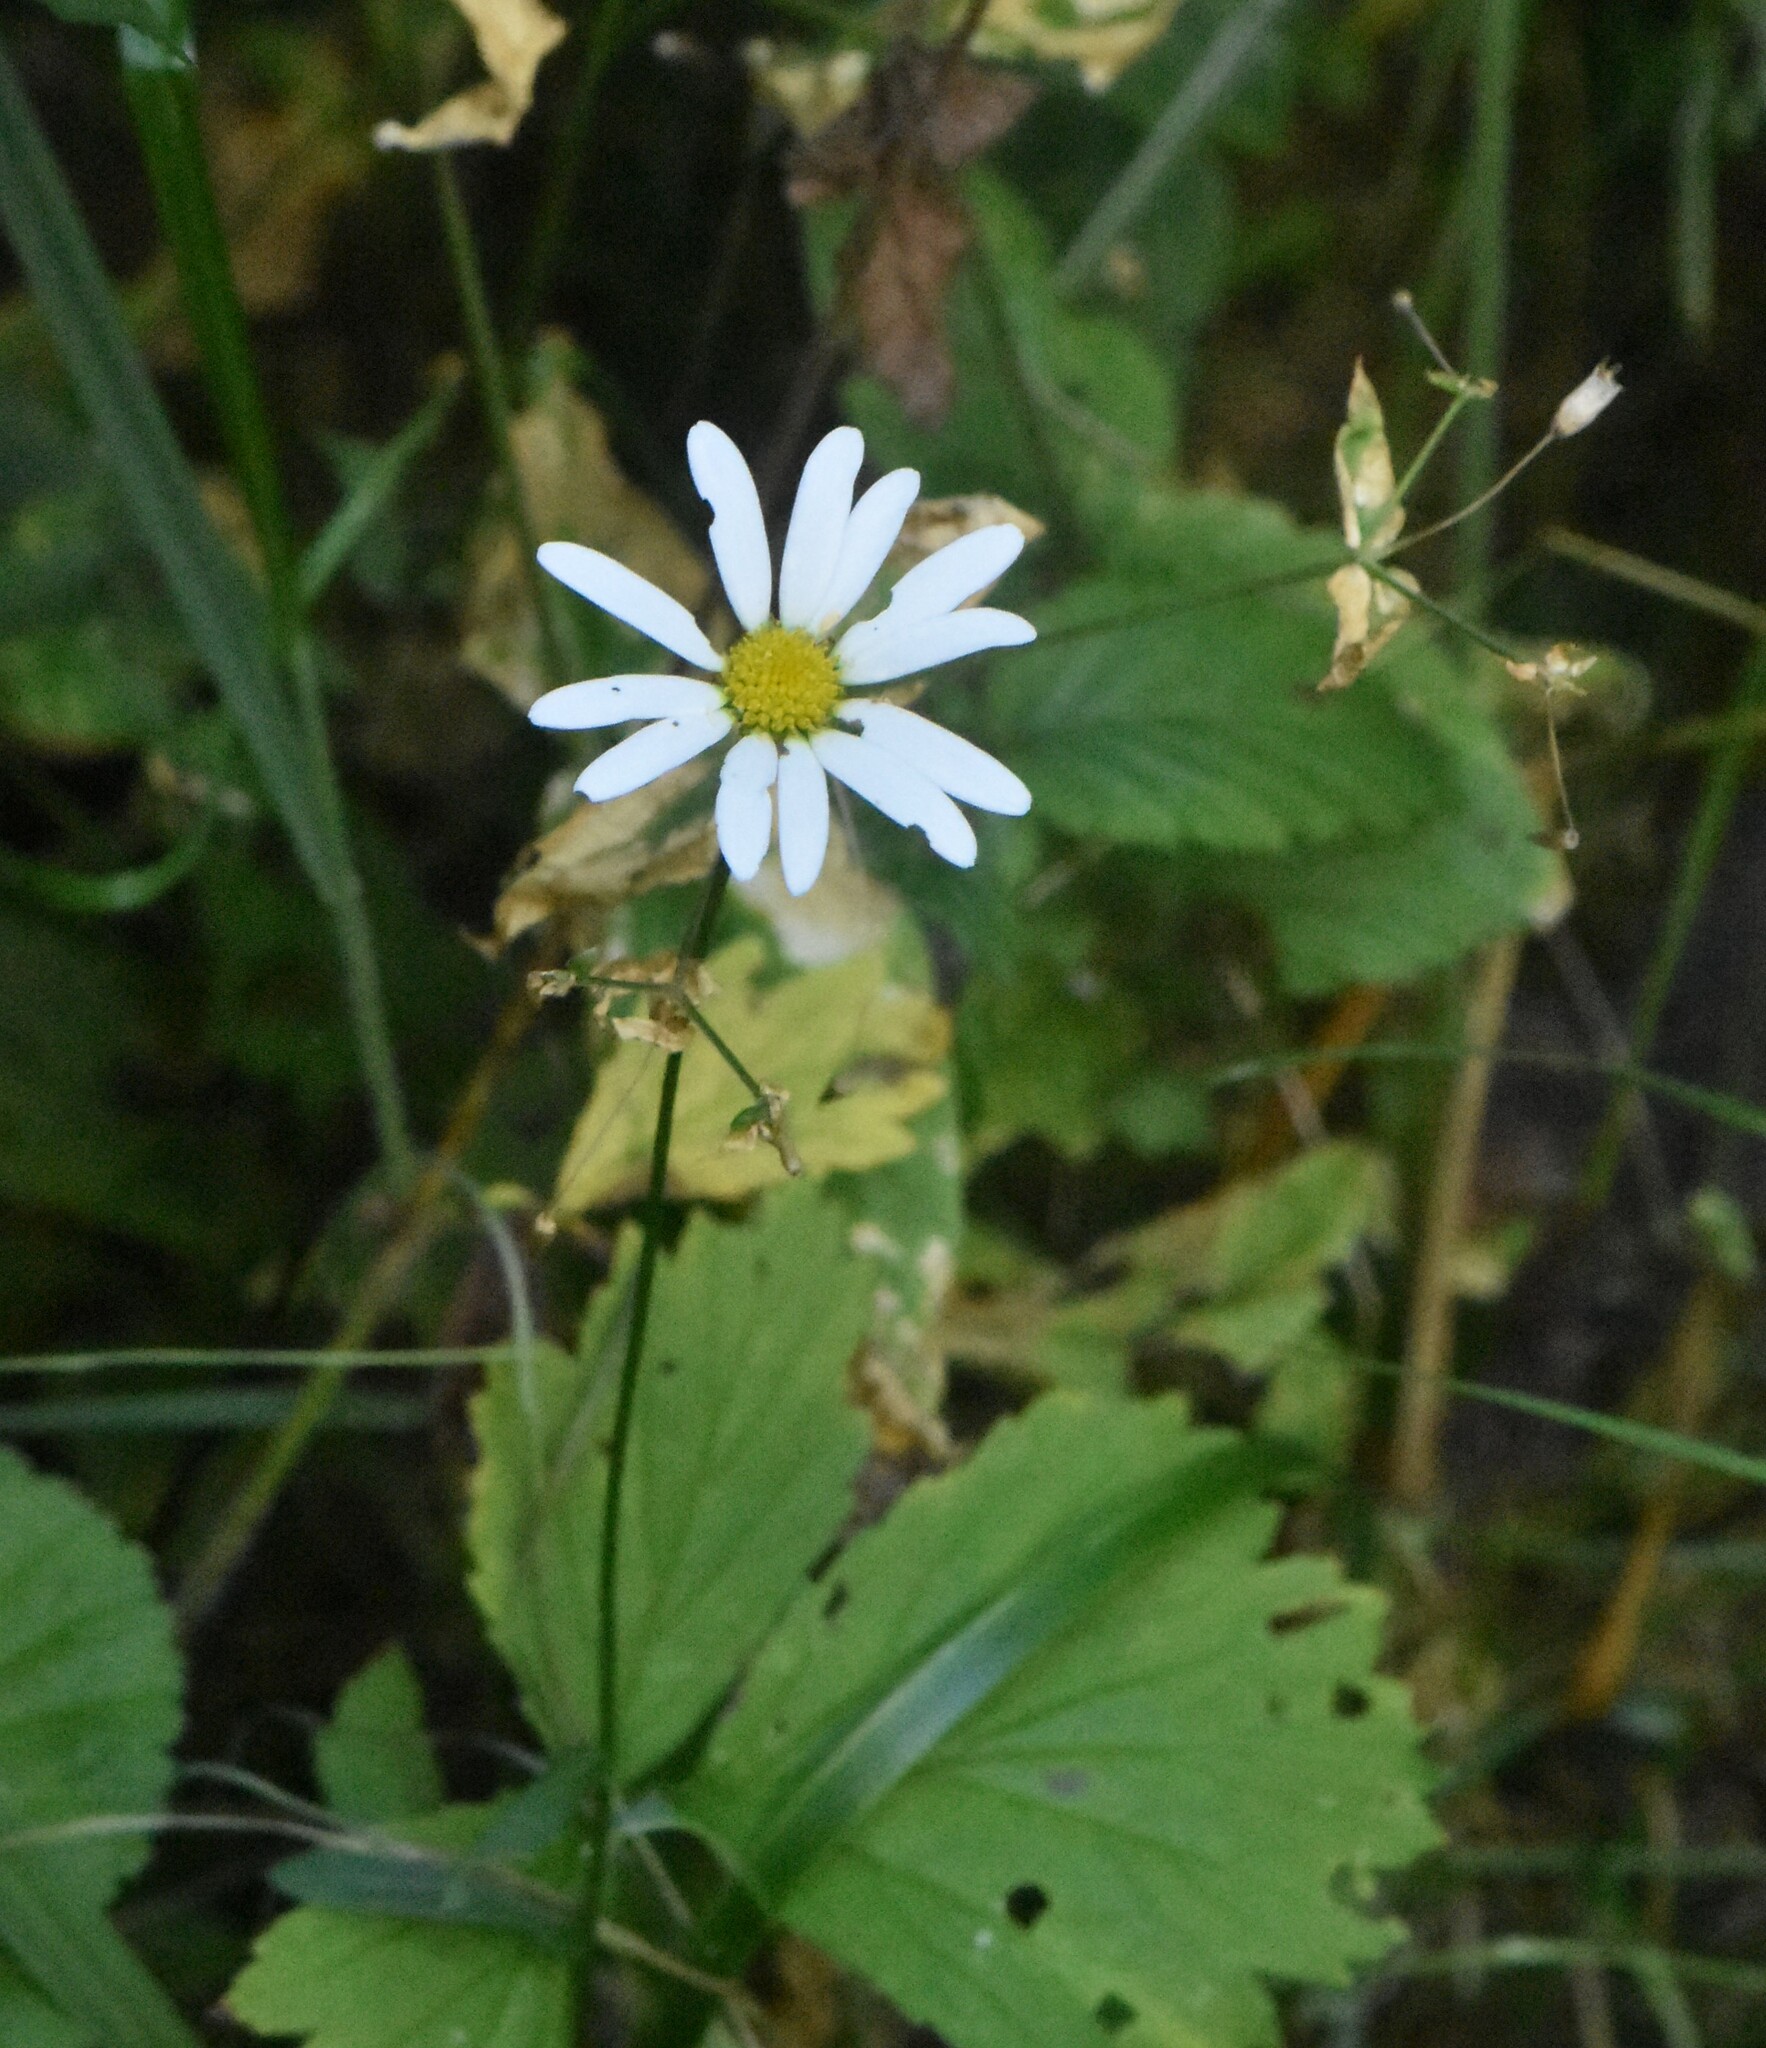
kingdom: Plantae
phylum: Tracheophyta
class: Magnoliopsida
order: Asterales
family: Asteraceae
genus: Leucanthemum
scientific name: Leucanthemum vulgare
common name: Oxeye daisy
